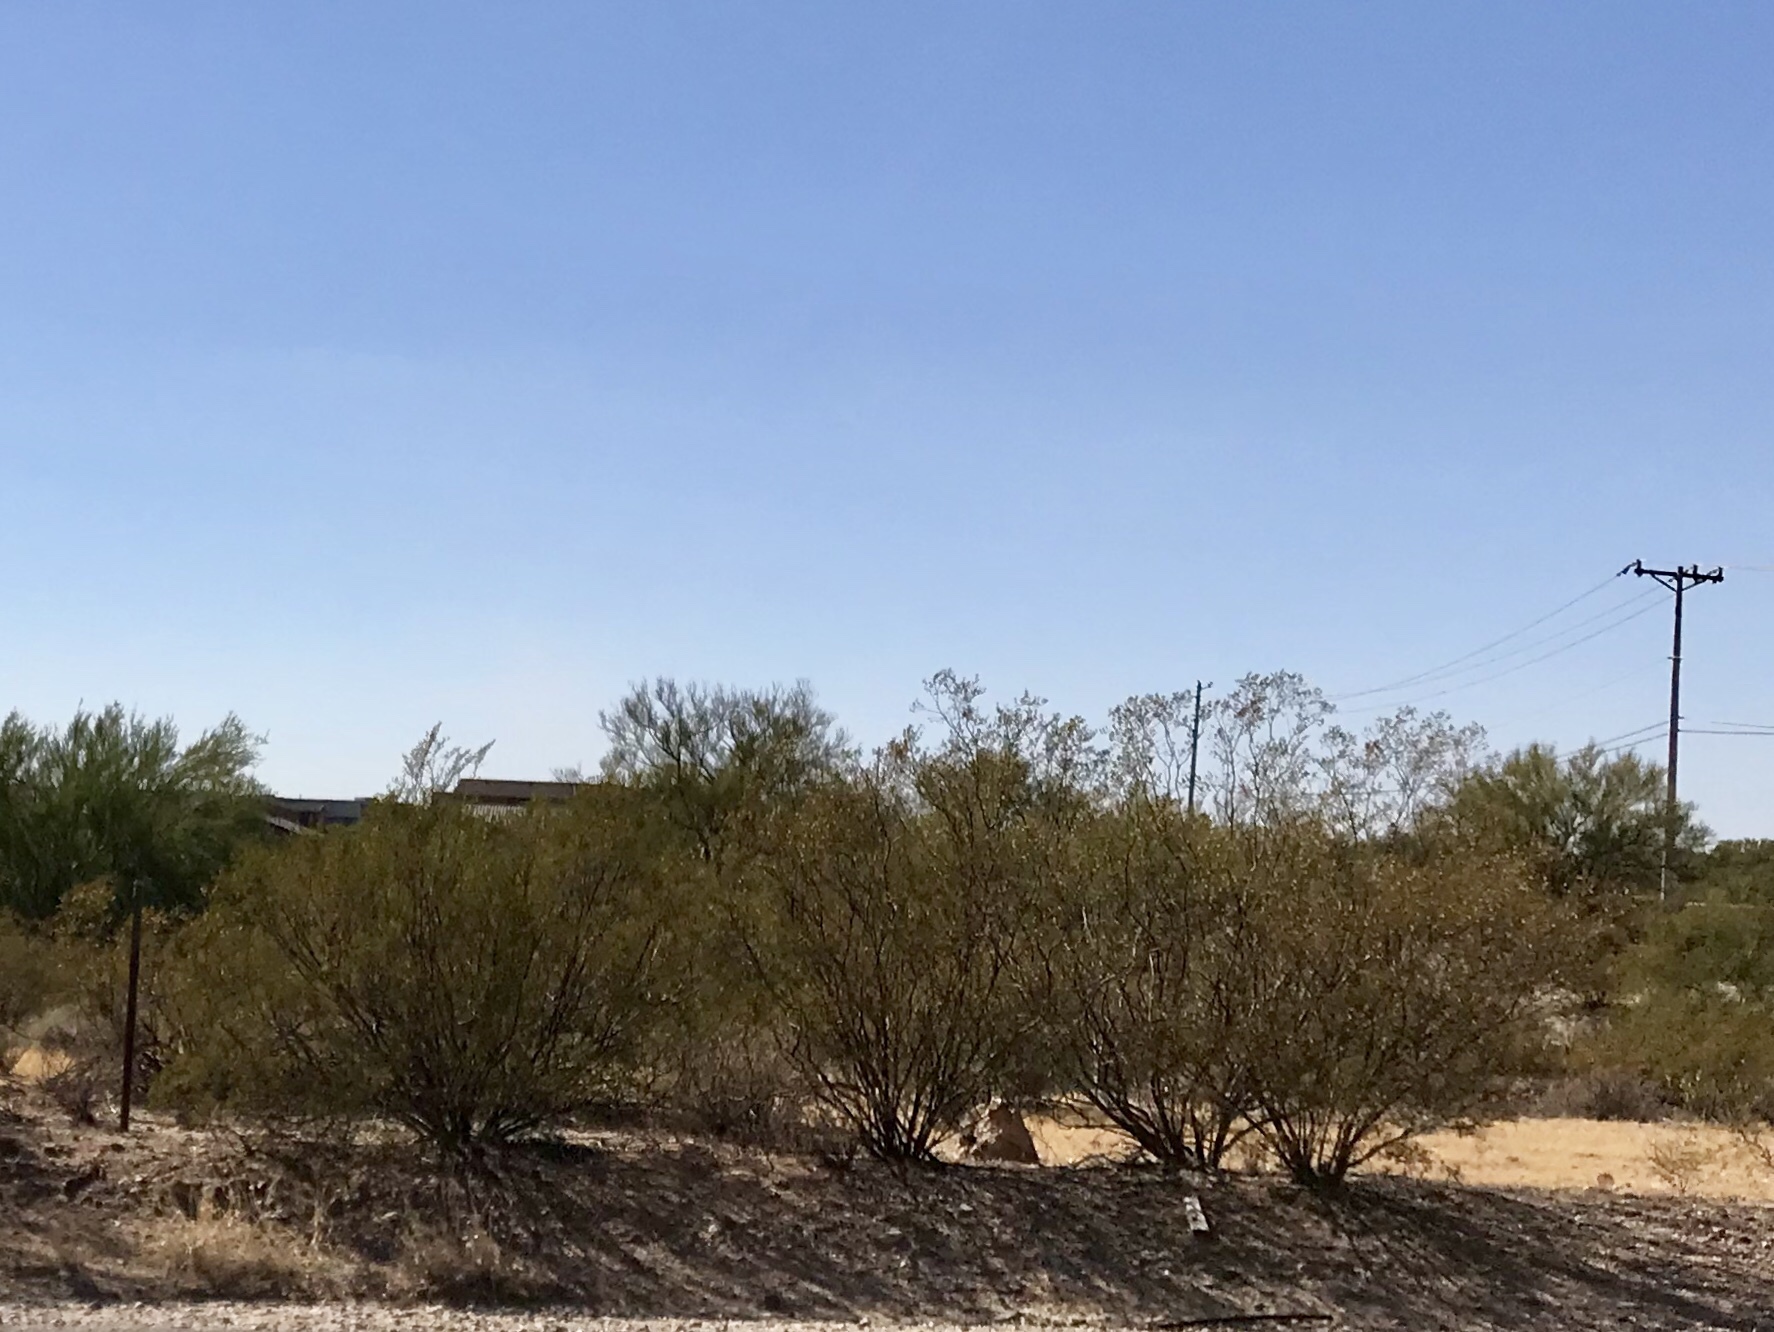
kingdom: Plantae
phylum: Tracheophyta
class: Magnoliopsida
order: Zygophyllales
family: Zygophyllaceae
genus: Larrea
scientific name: Larrea tridentata
